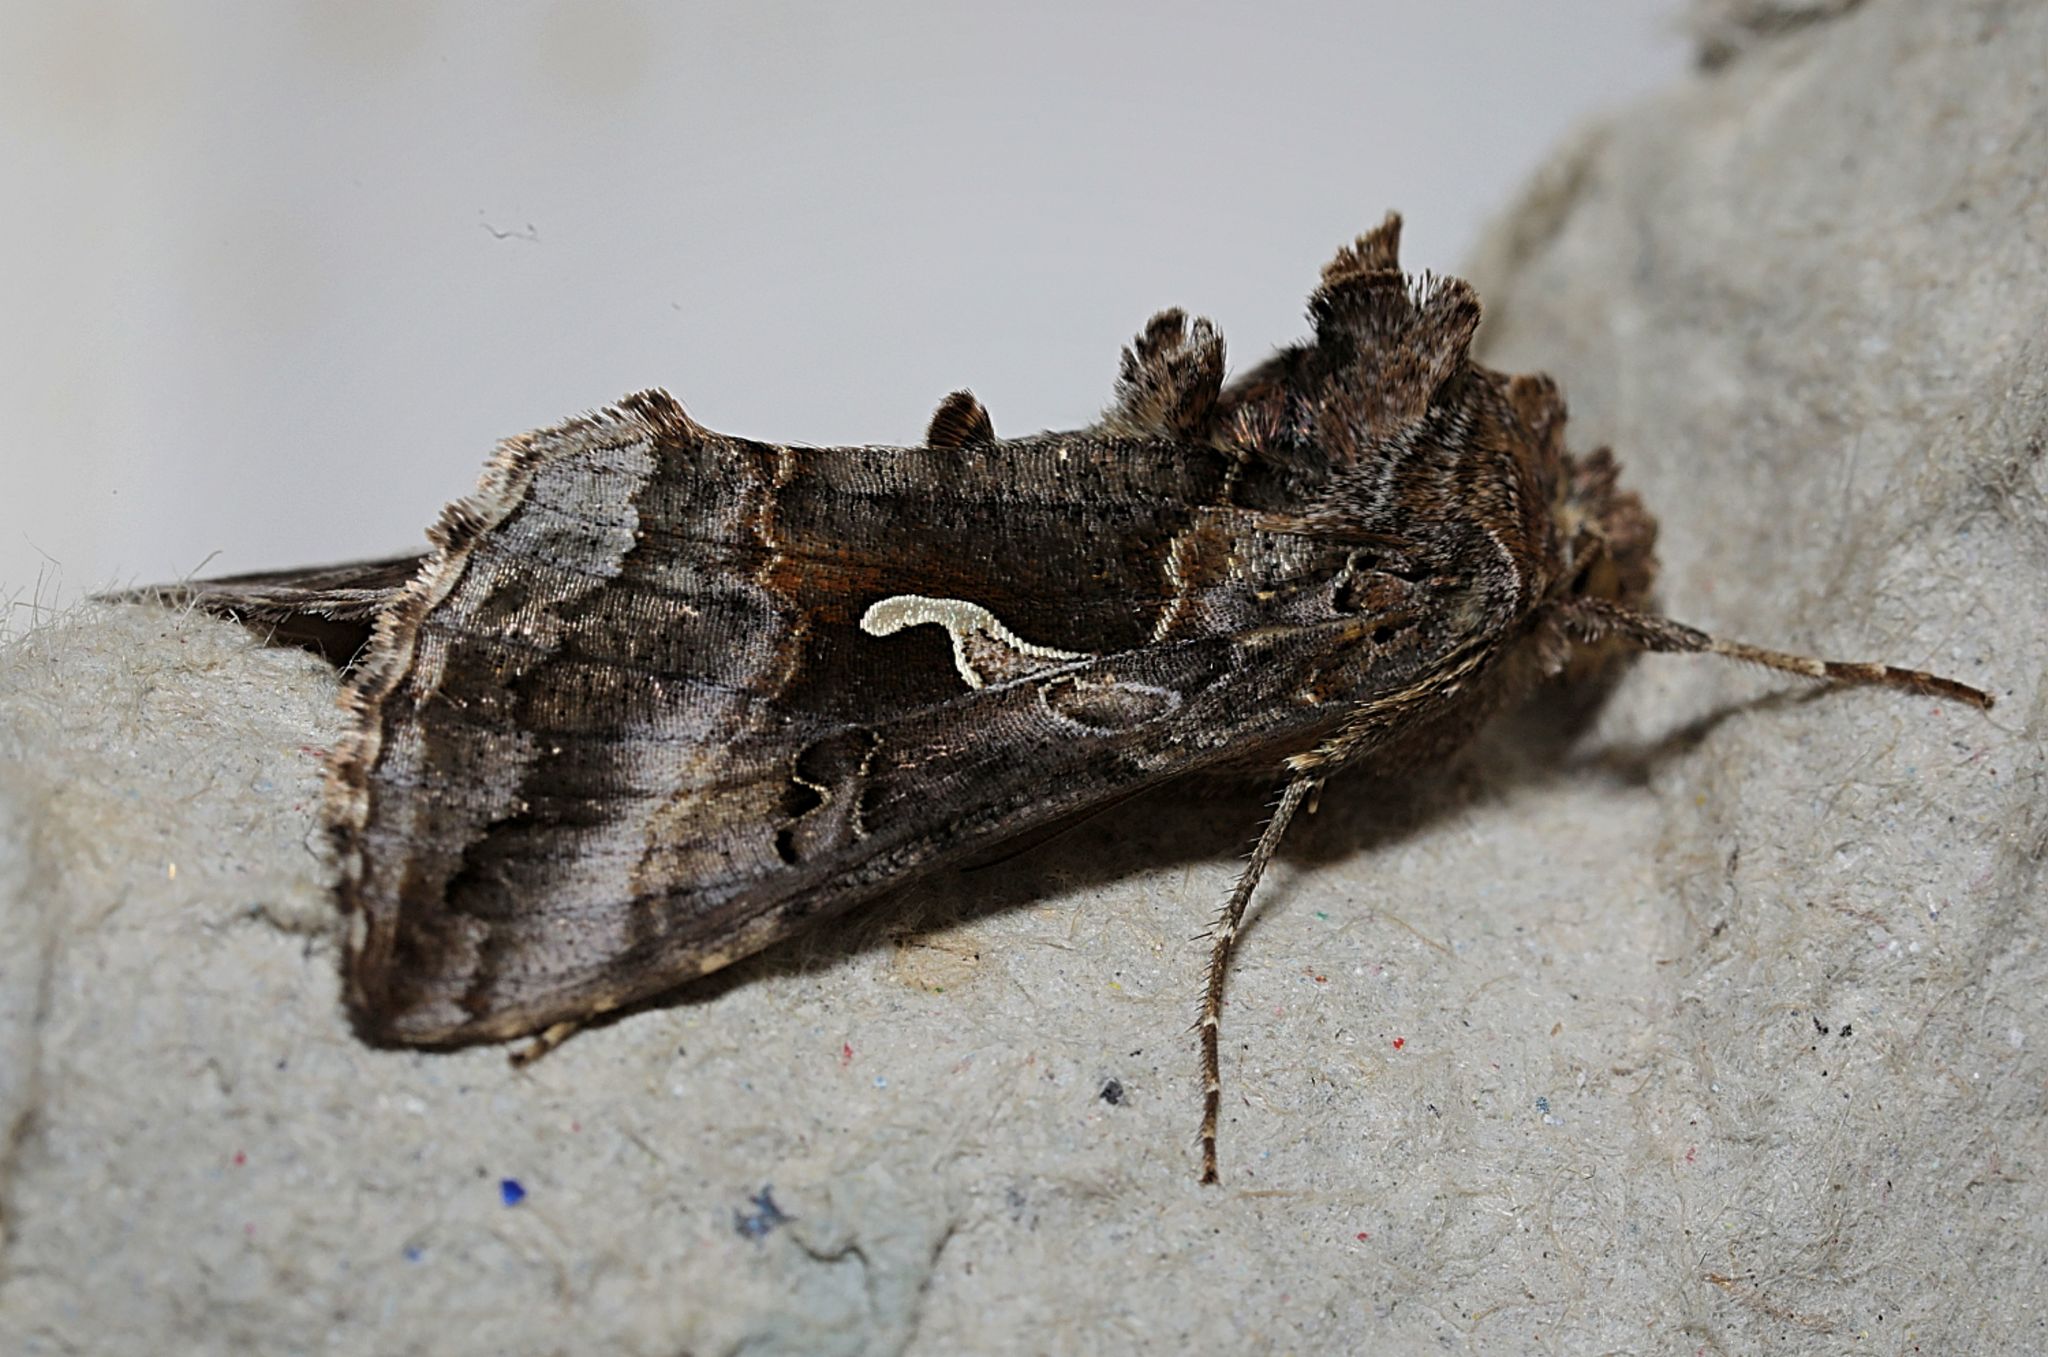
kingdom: Animalia
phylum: Arthropoda
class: Insecta
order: Lepidoptera
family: Noctuidae
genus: Autographa
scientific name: Autographa gamma
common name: Silver y
